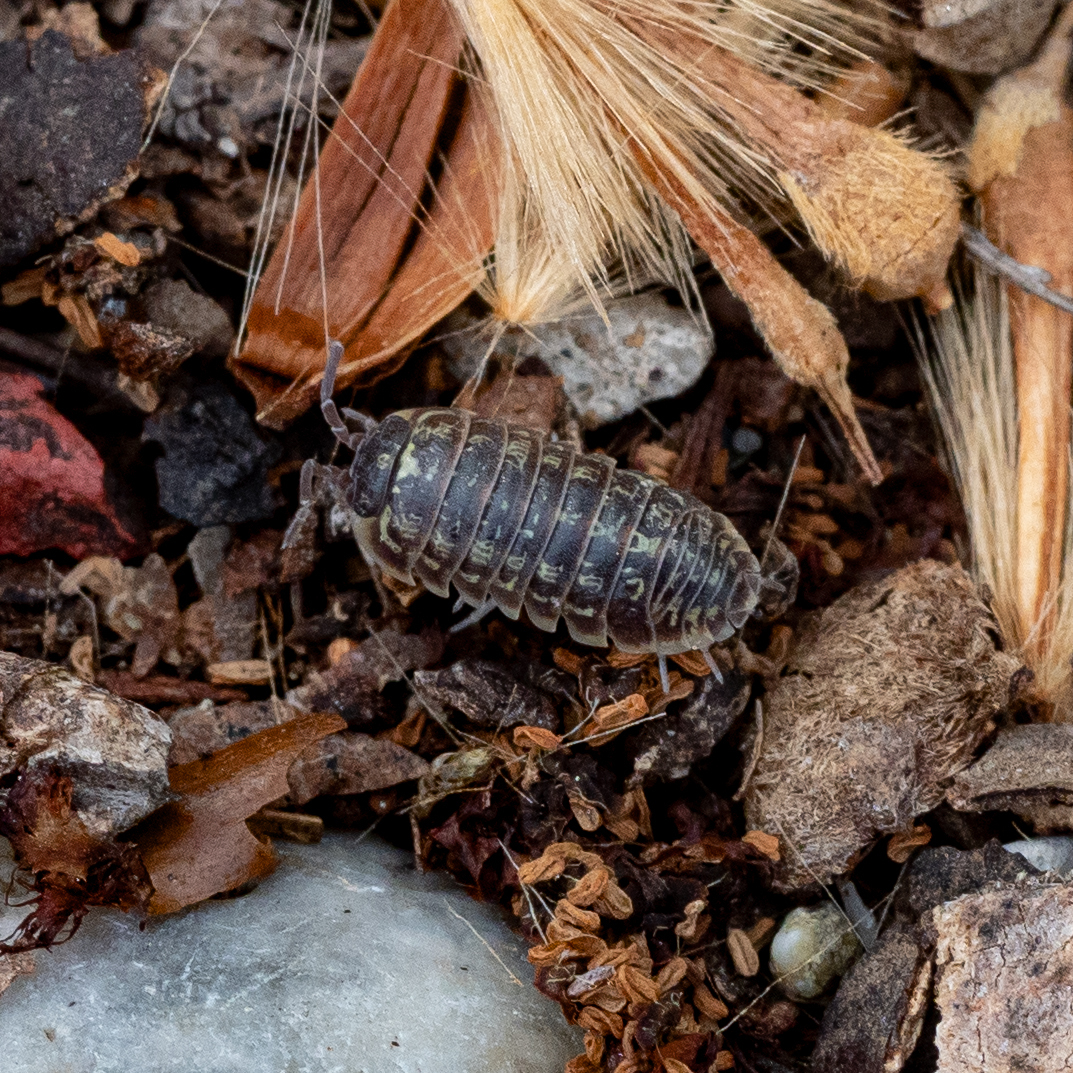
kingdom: Animalia
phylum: Arthropoda
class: Malacostraca
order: Isopoda
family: Armadillidiidae
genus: Armadillidium
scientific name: Armadillidium versicolor
